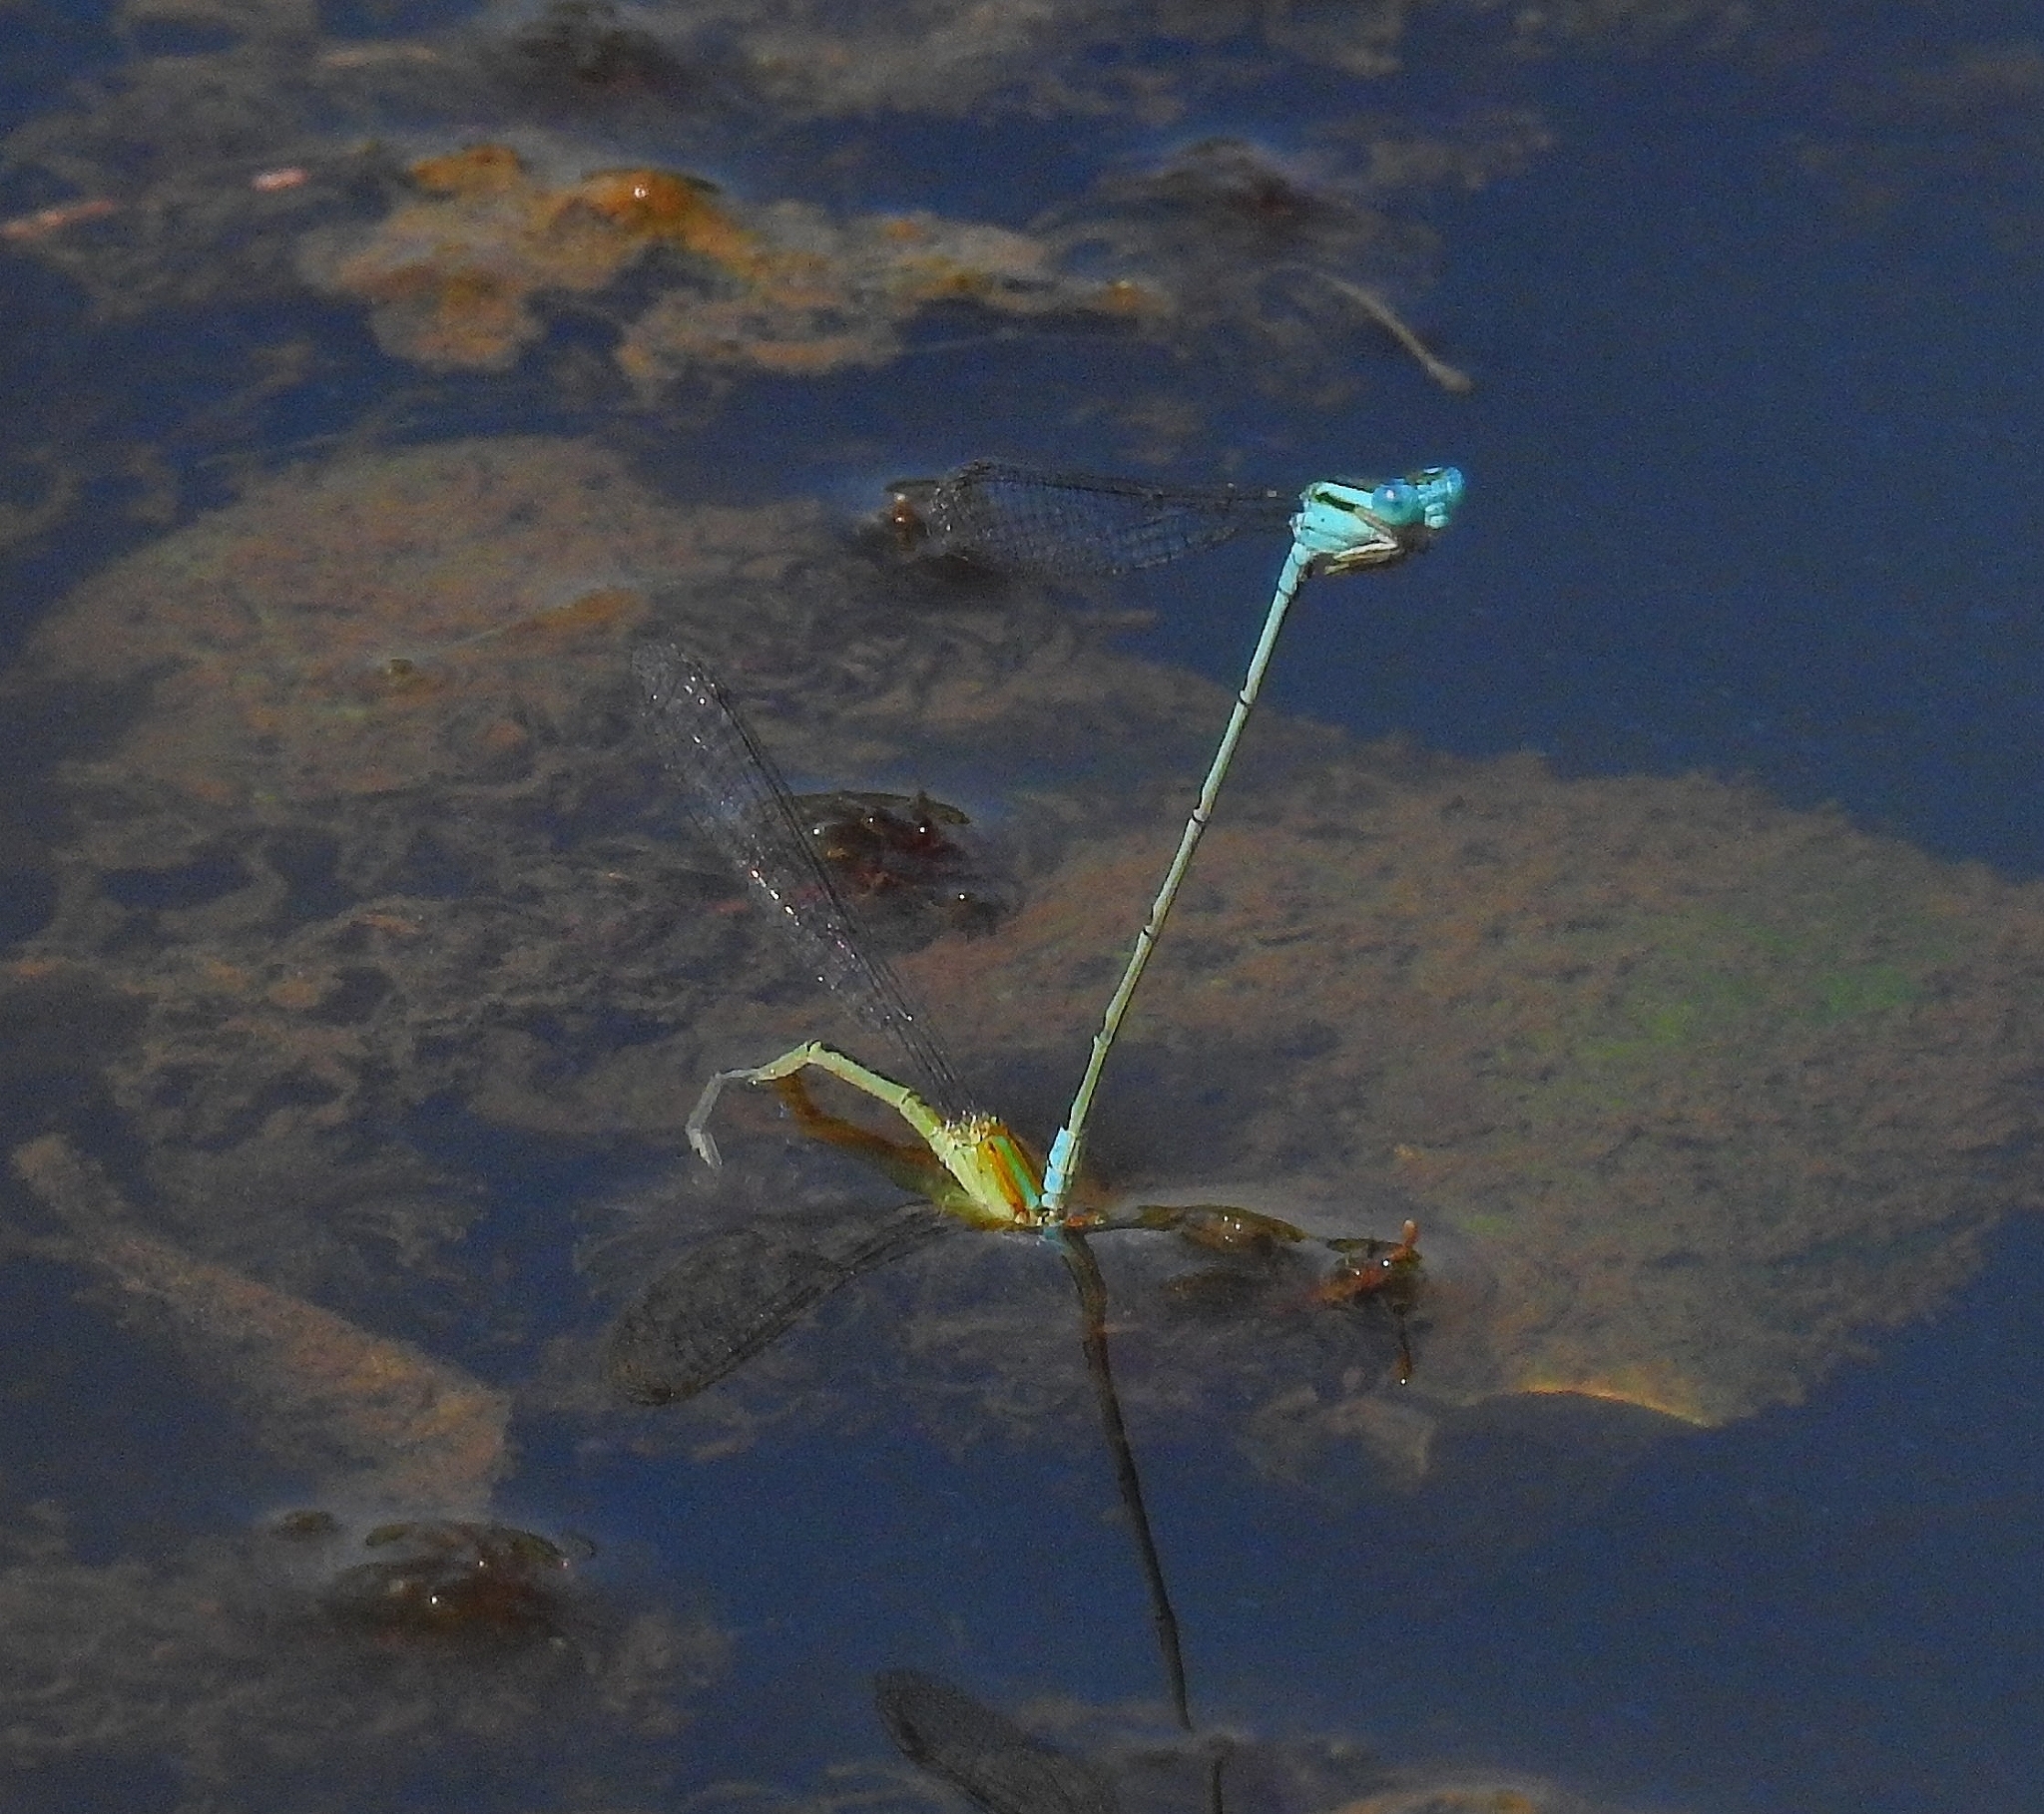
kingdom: Animalia
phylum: Arthropoda
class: Insecta
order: Odonata
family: Coenagrionidae
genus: Pseudagrion
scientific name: Pseudagrion microcephalum
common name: Blue riverdamsel
